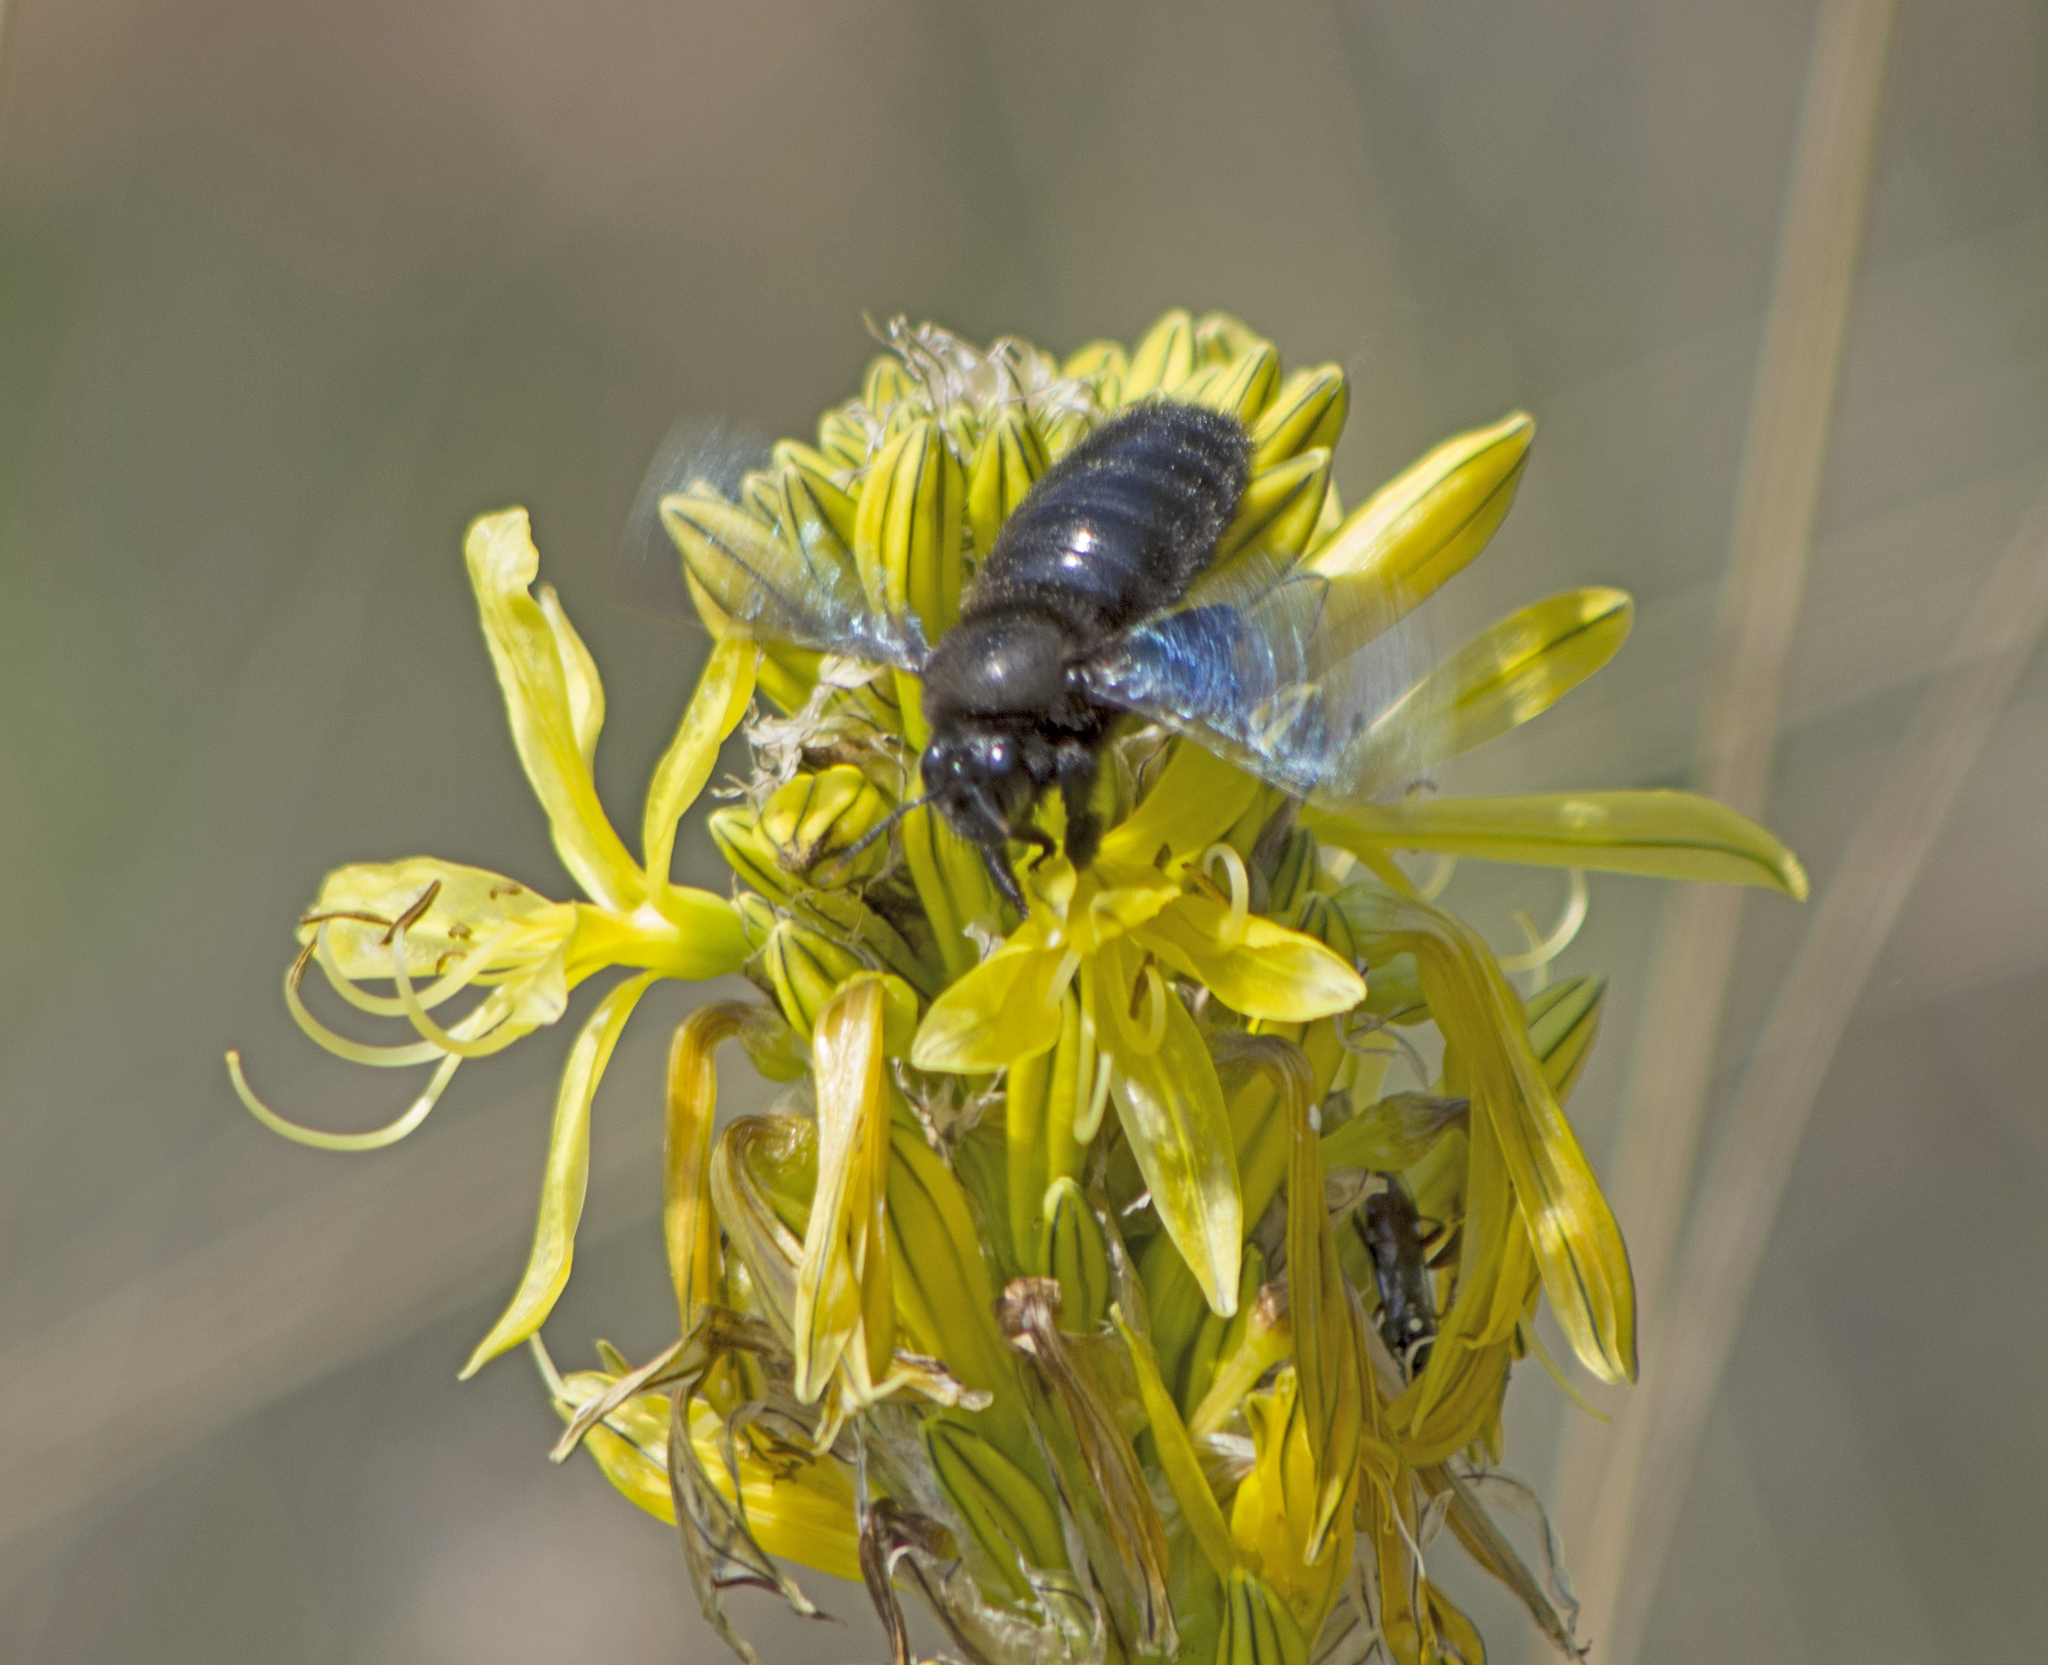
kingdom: Animalia
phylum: Arthropoda
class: Insecta
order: Hymenoptera
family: Apidae
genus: Xylocopa
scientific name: Xylocopa violacea
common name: Violet carpenter bee
